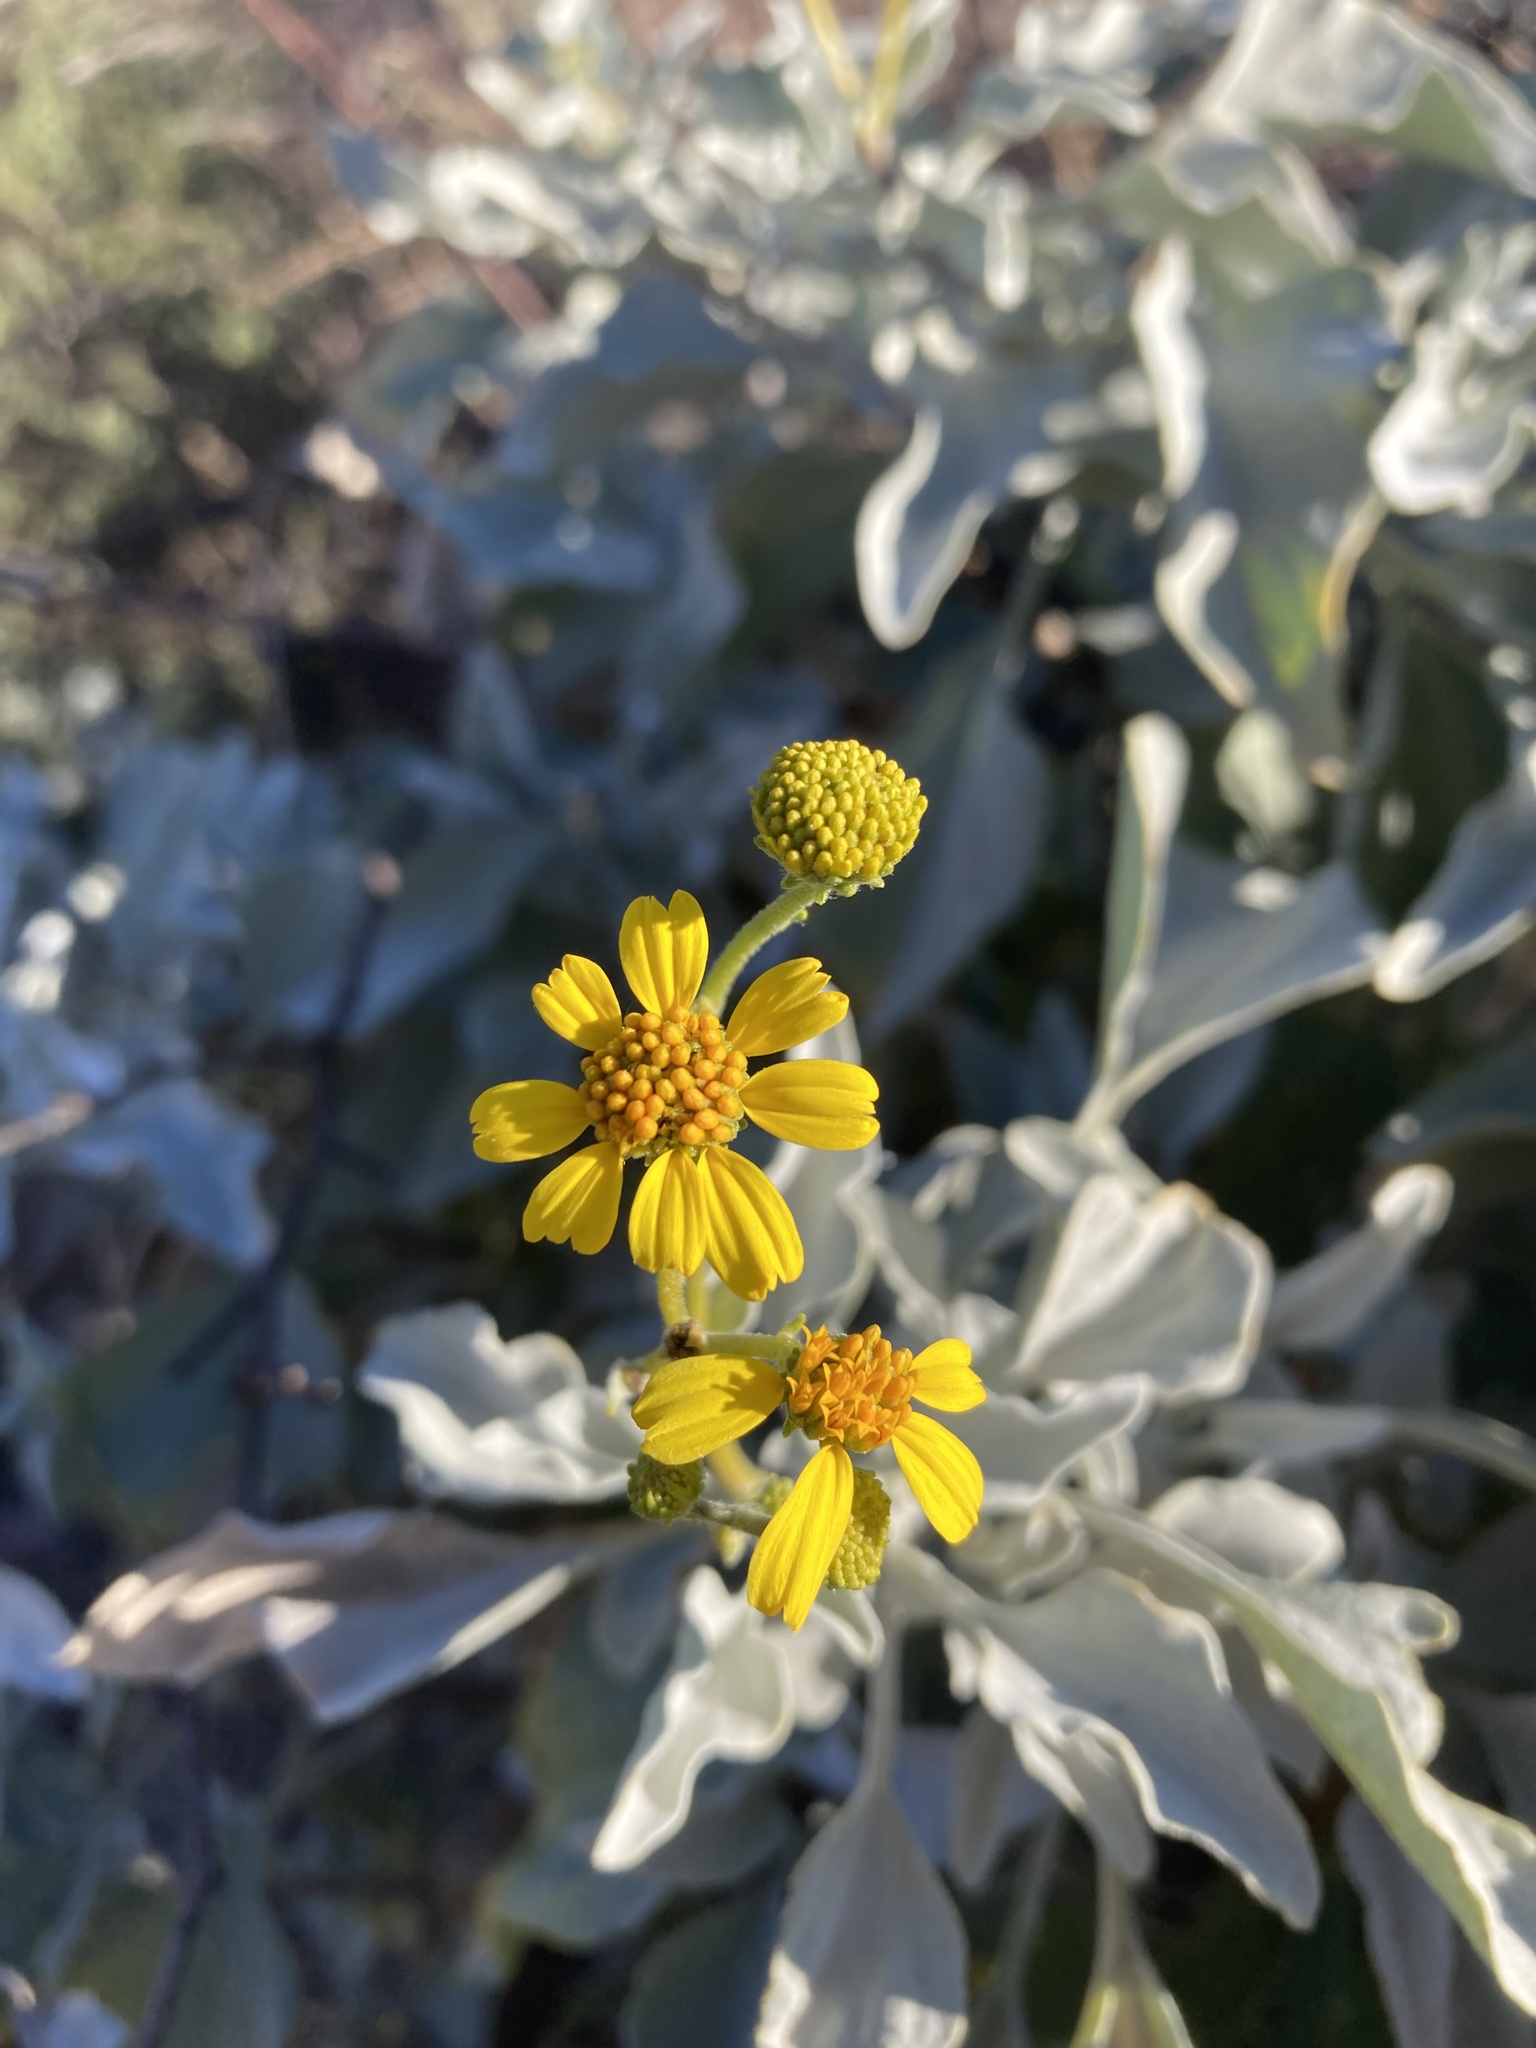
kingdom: Plantae
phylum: Tracheophyta
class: Magnoliopsida
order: Asterales
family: Asteraceae
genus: Encelia
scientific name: Encelia farinosa
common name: Brittlebush
